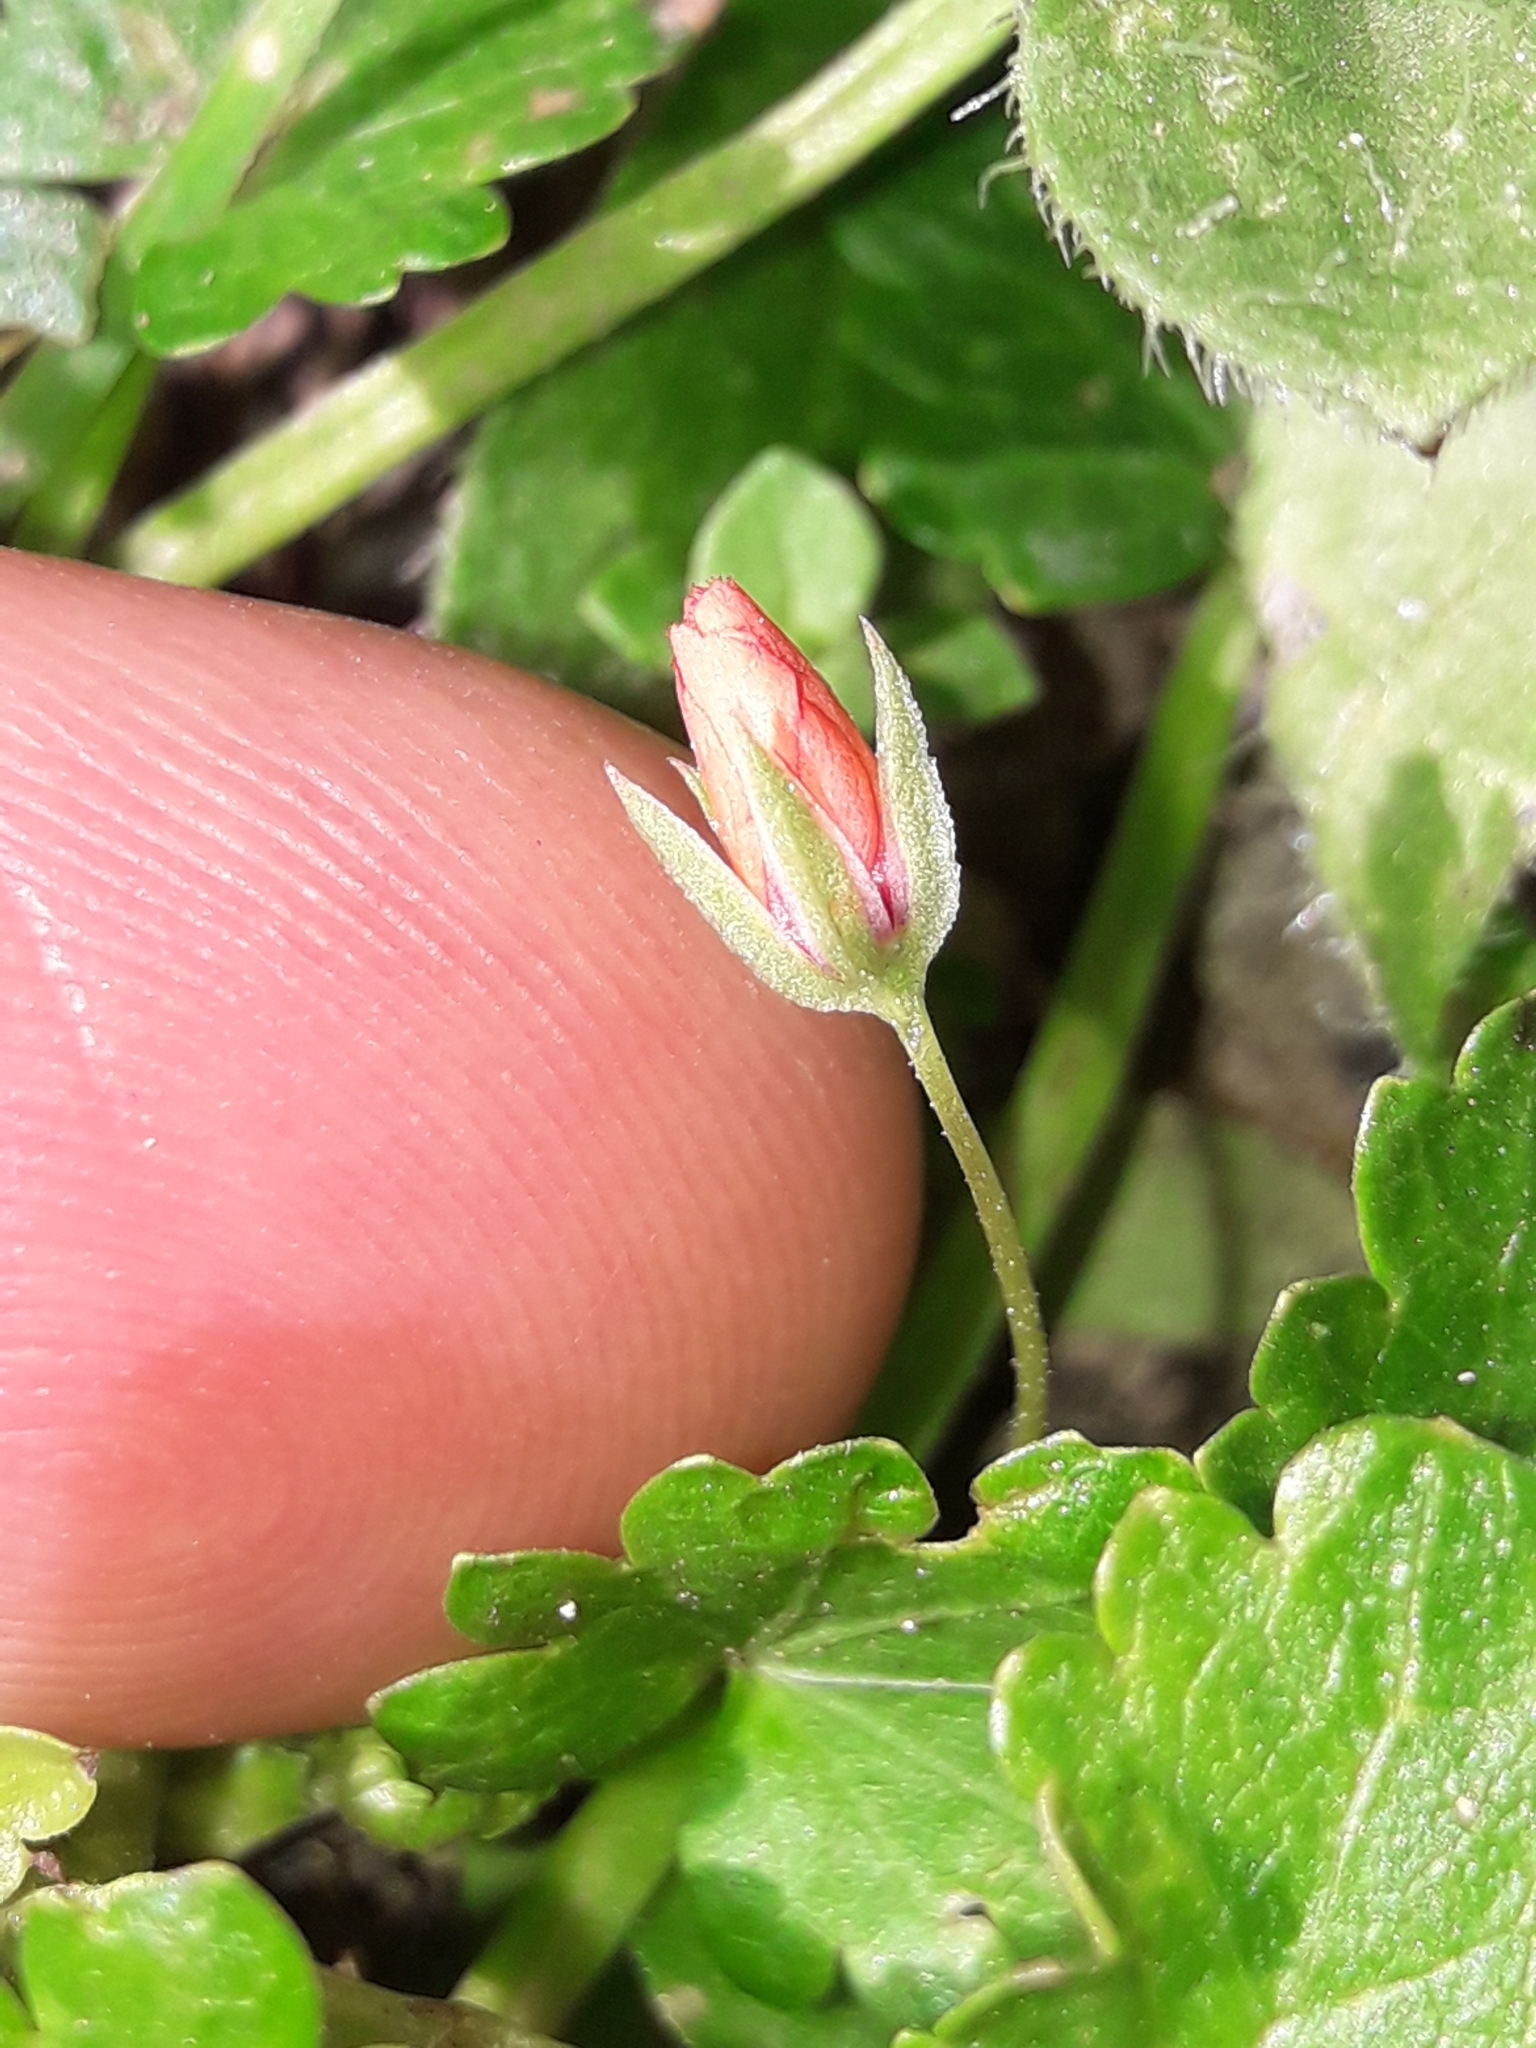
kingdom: Plantae
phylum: Tracheophyta
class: Magnoliopsida
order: Malvales
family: Malvaceae
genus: Modiola
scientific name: Modiola caroliniana
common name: Carolina bristlemallow
